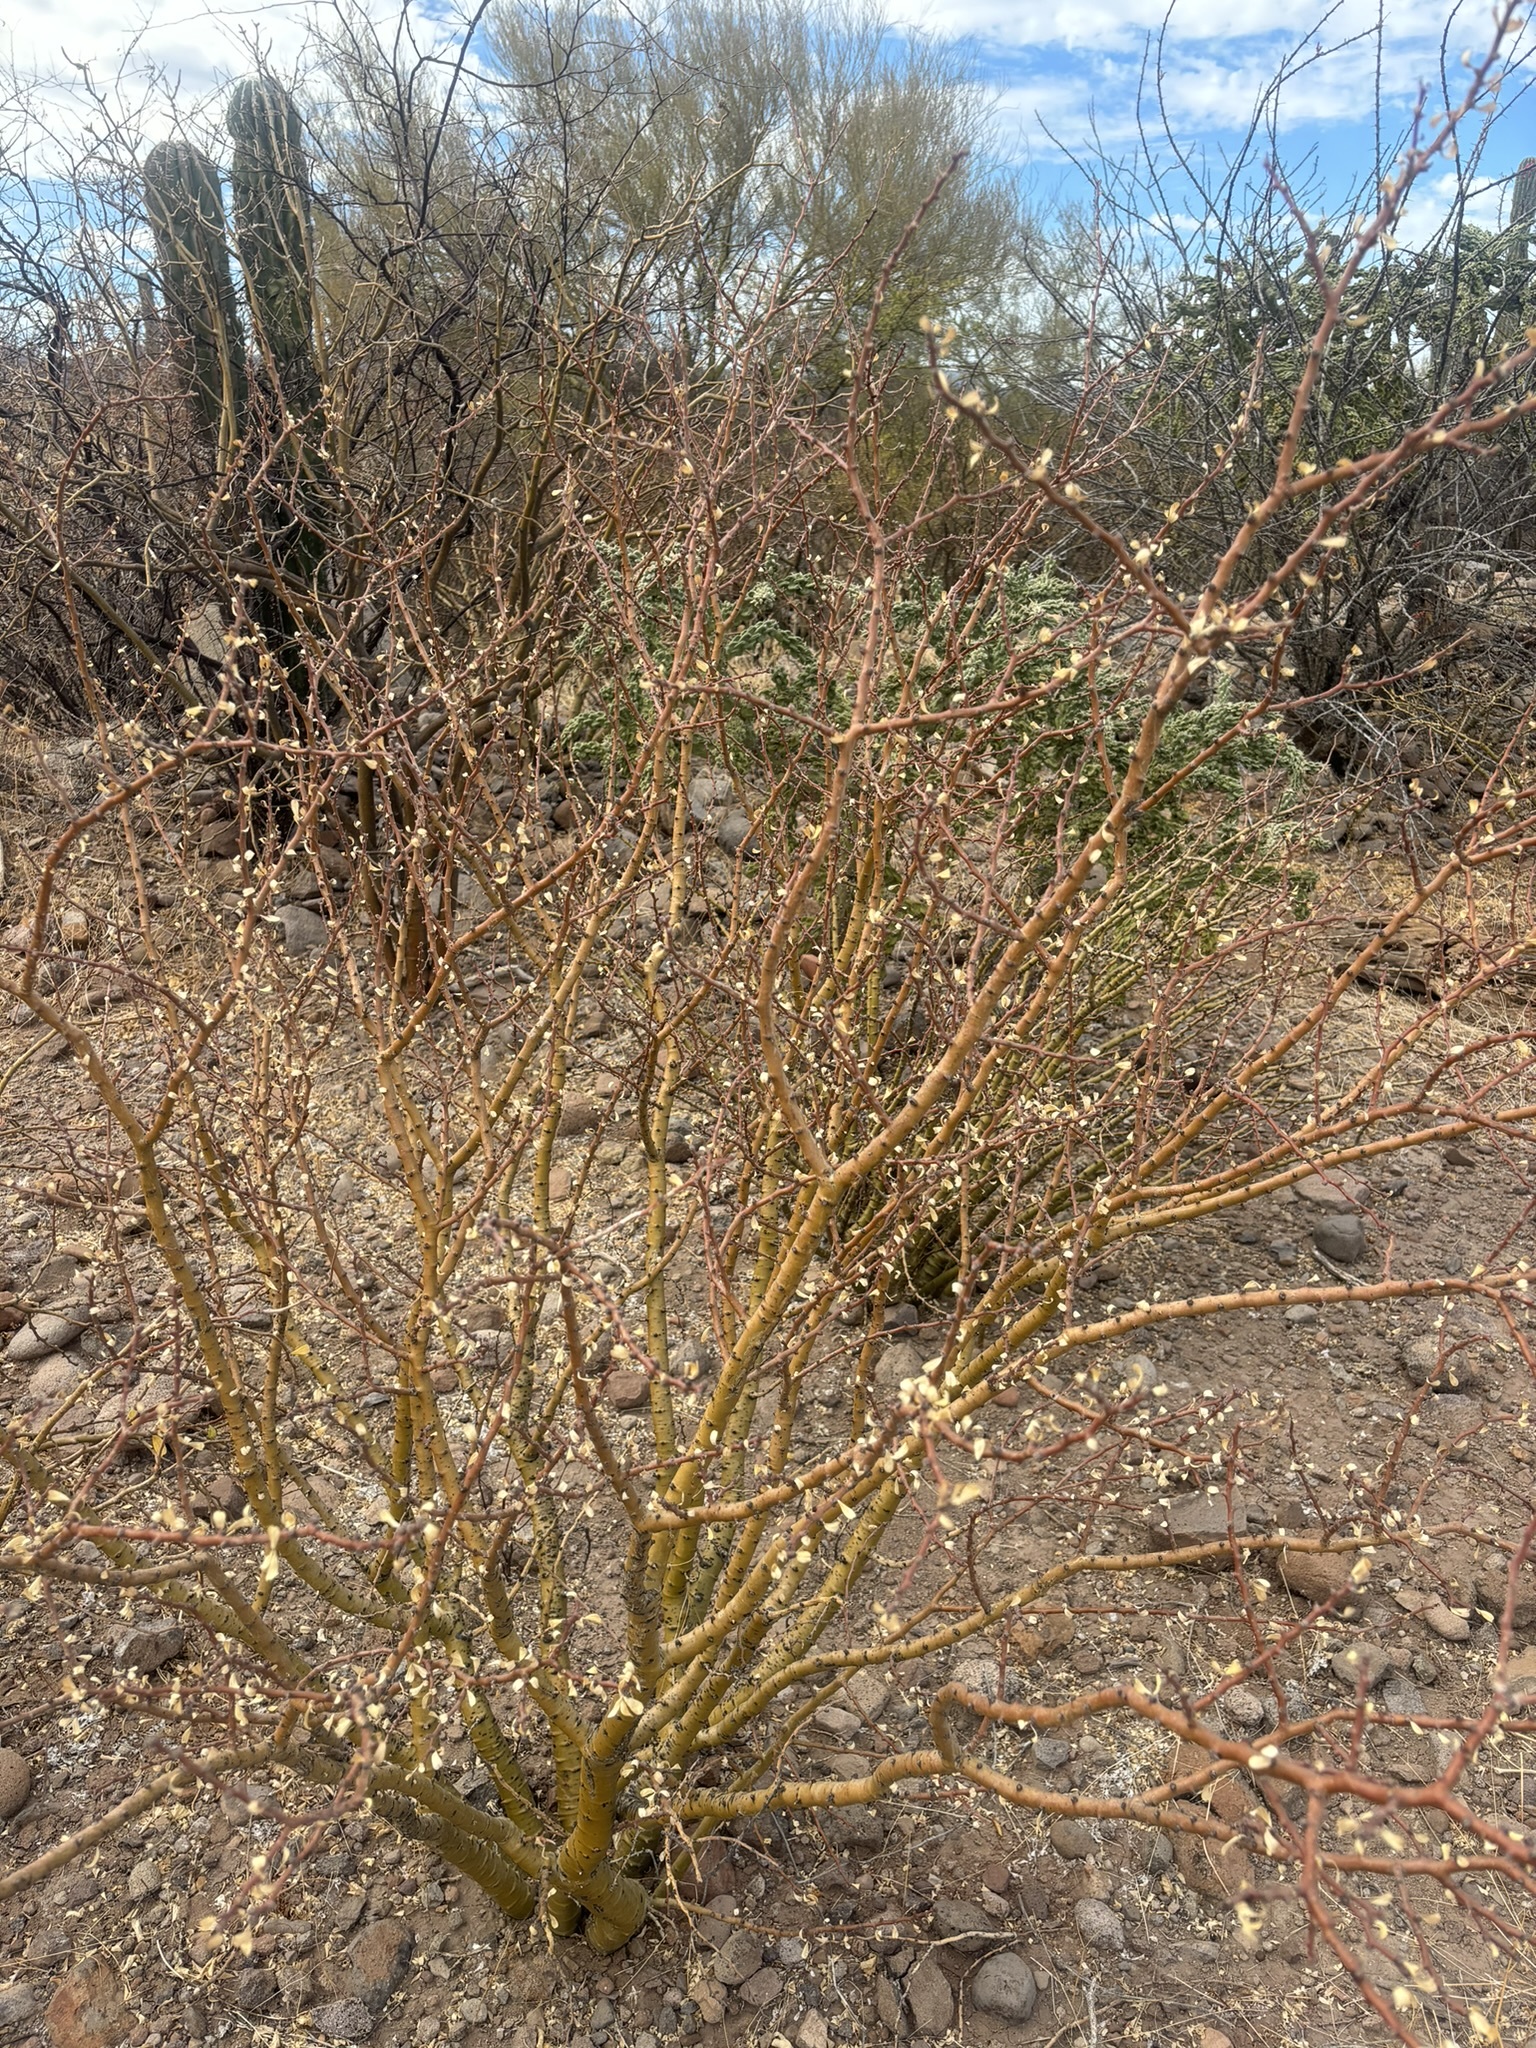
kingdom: Plantae
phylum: Tracheophyta
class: Magnoliopsida
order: Malpighiales
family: Euphorbiaceae
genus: Jatropha
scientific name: Jatropha cuneata
